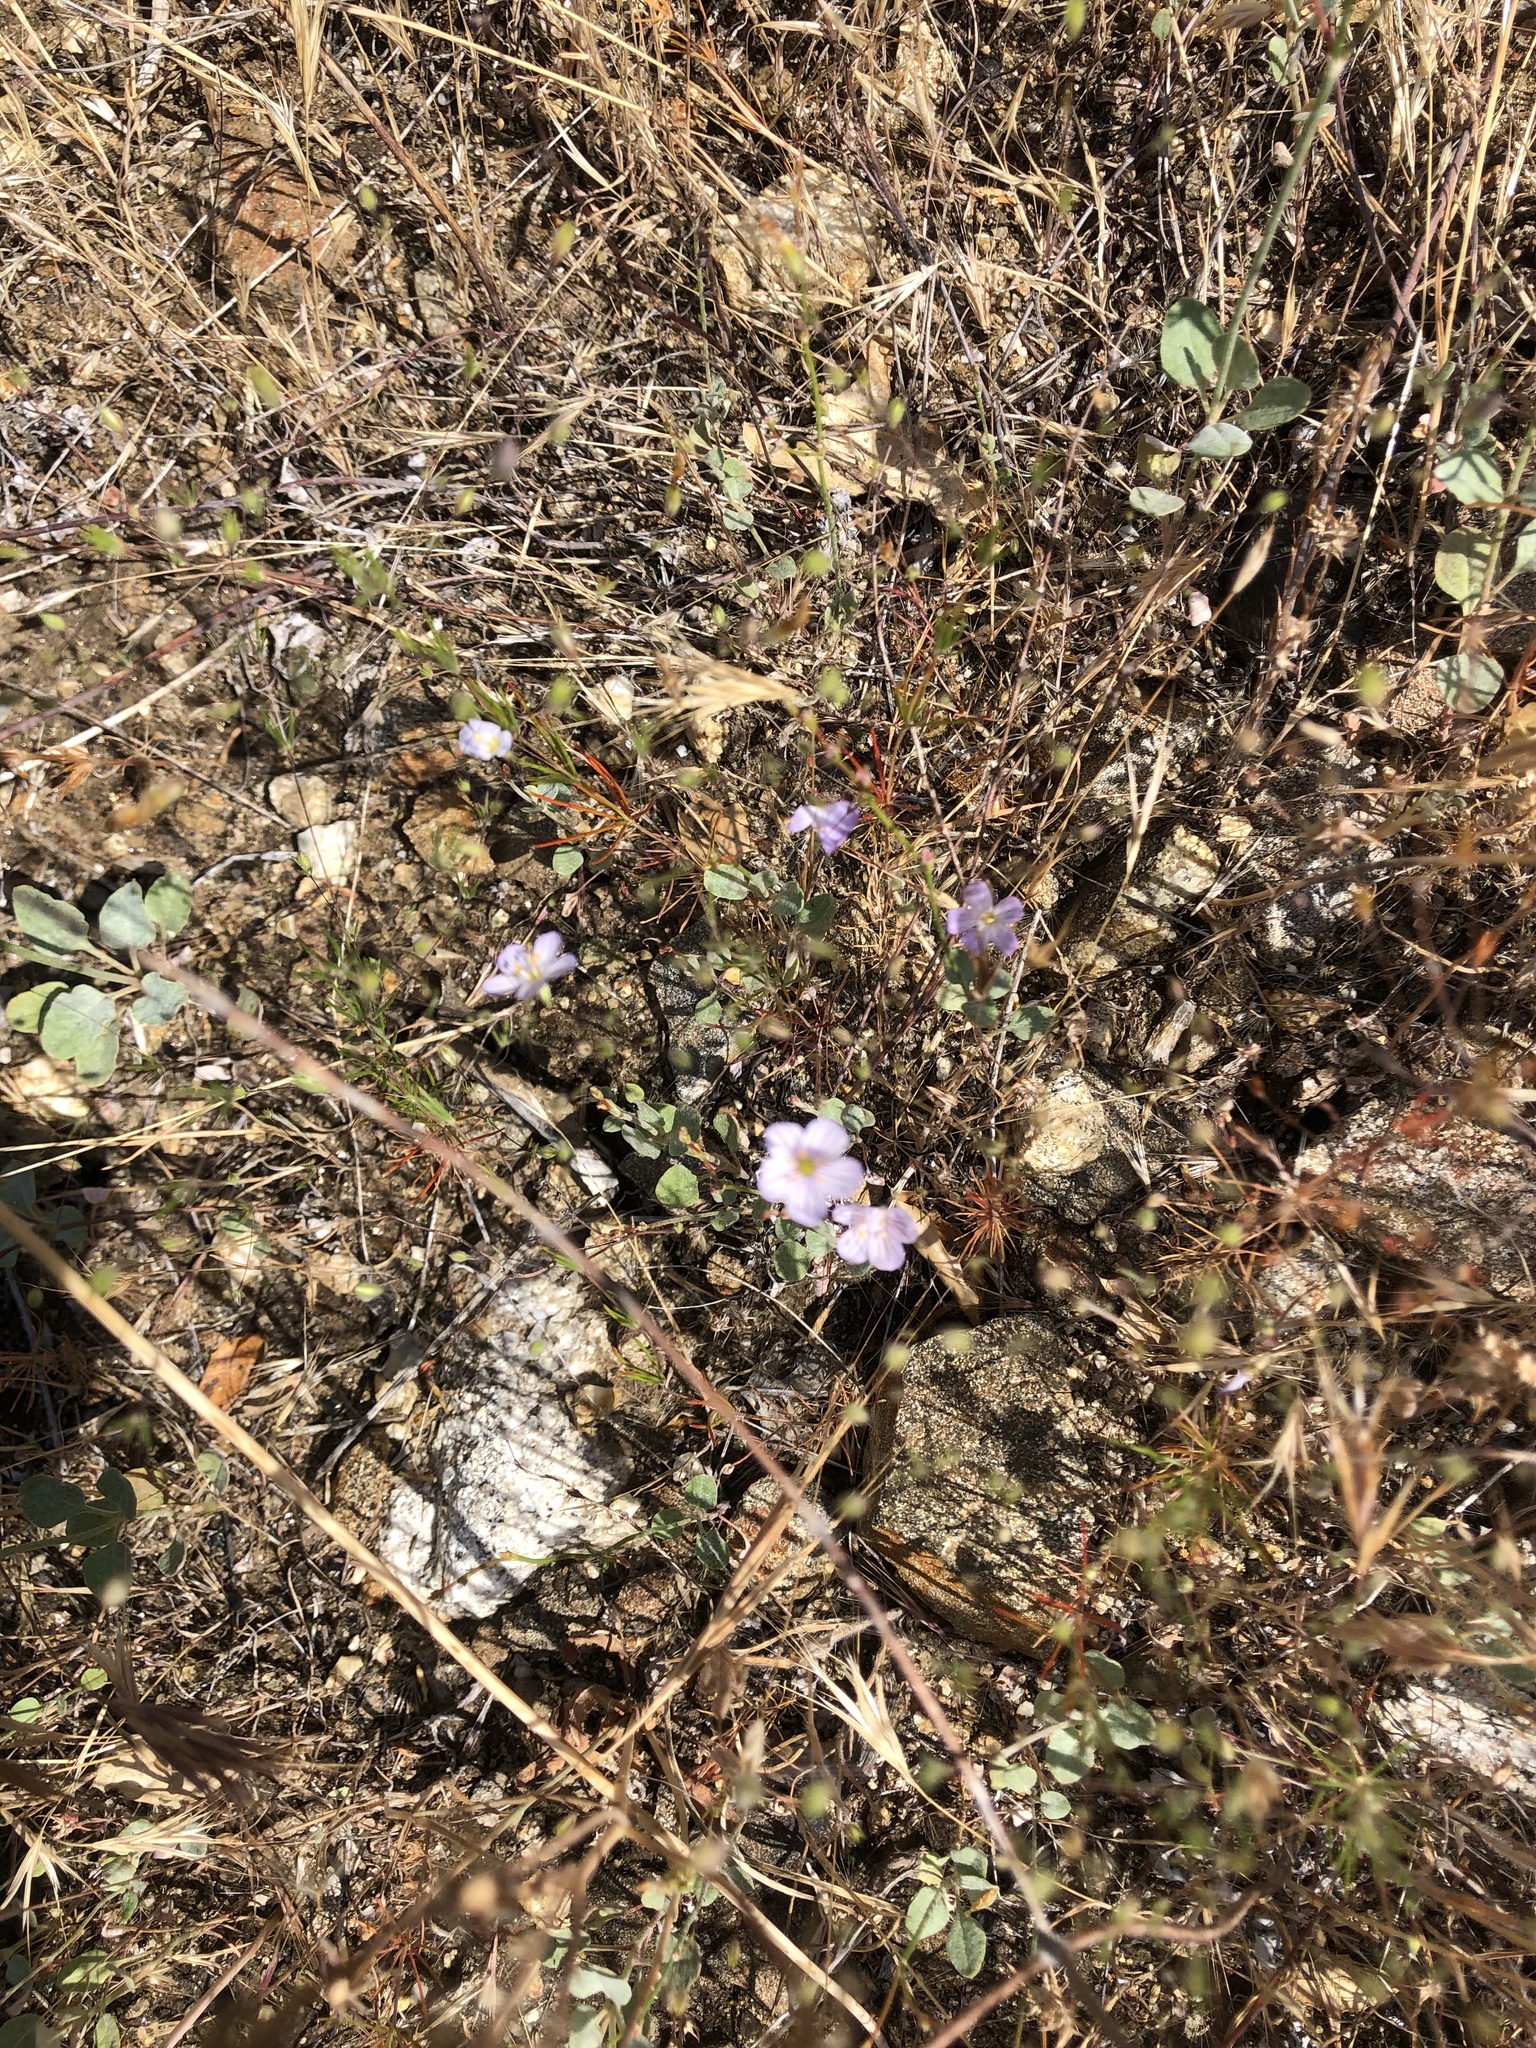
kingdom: Plantae
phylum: Tracheophyta
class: Magnoliopsida
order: Ericales
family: Polemoniaceae
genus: Leptosiphon
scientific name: Leptosiphon liniflorus
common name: Narrowflower flaxflower
